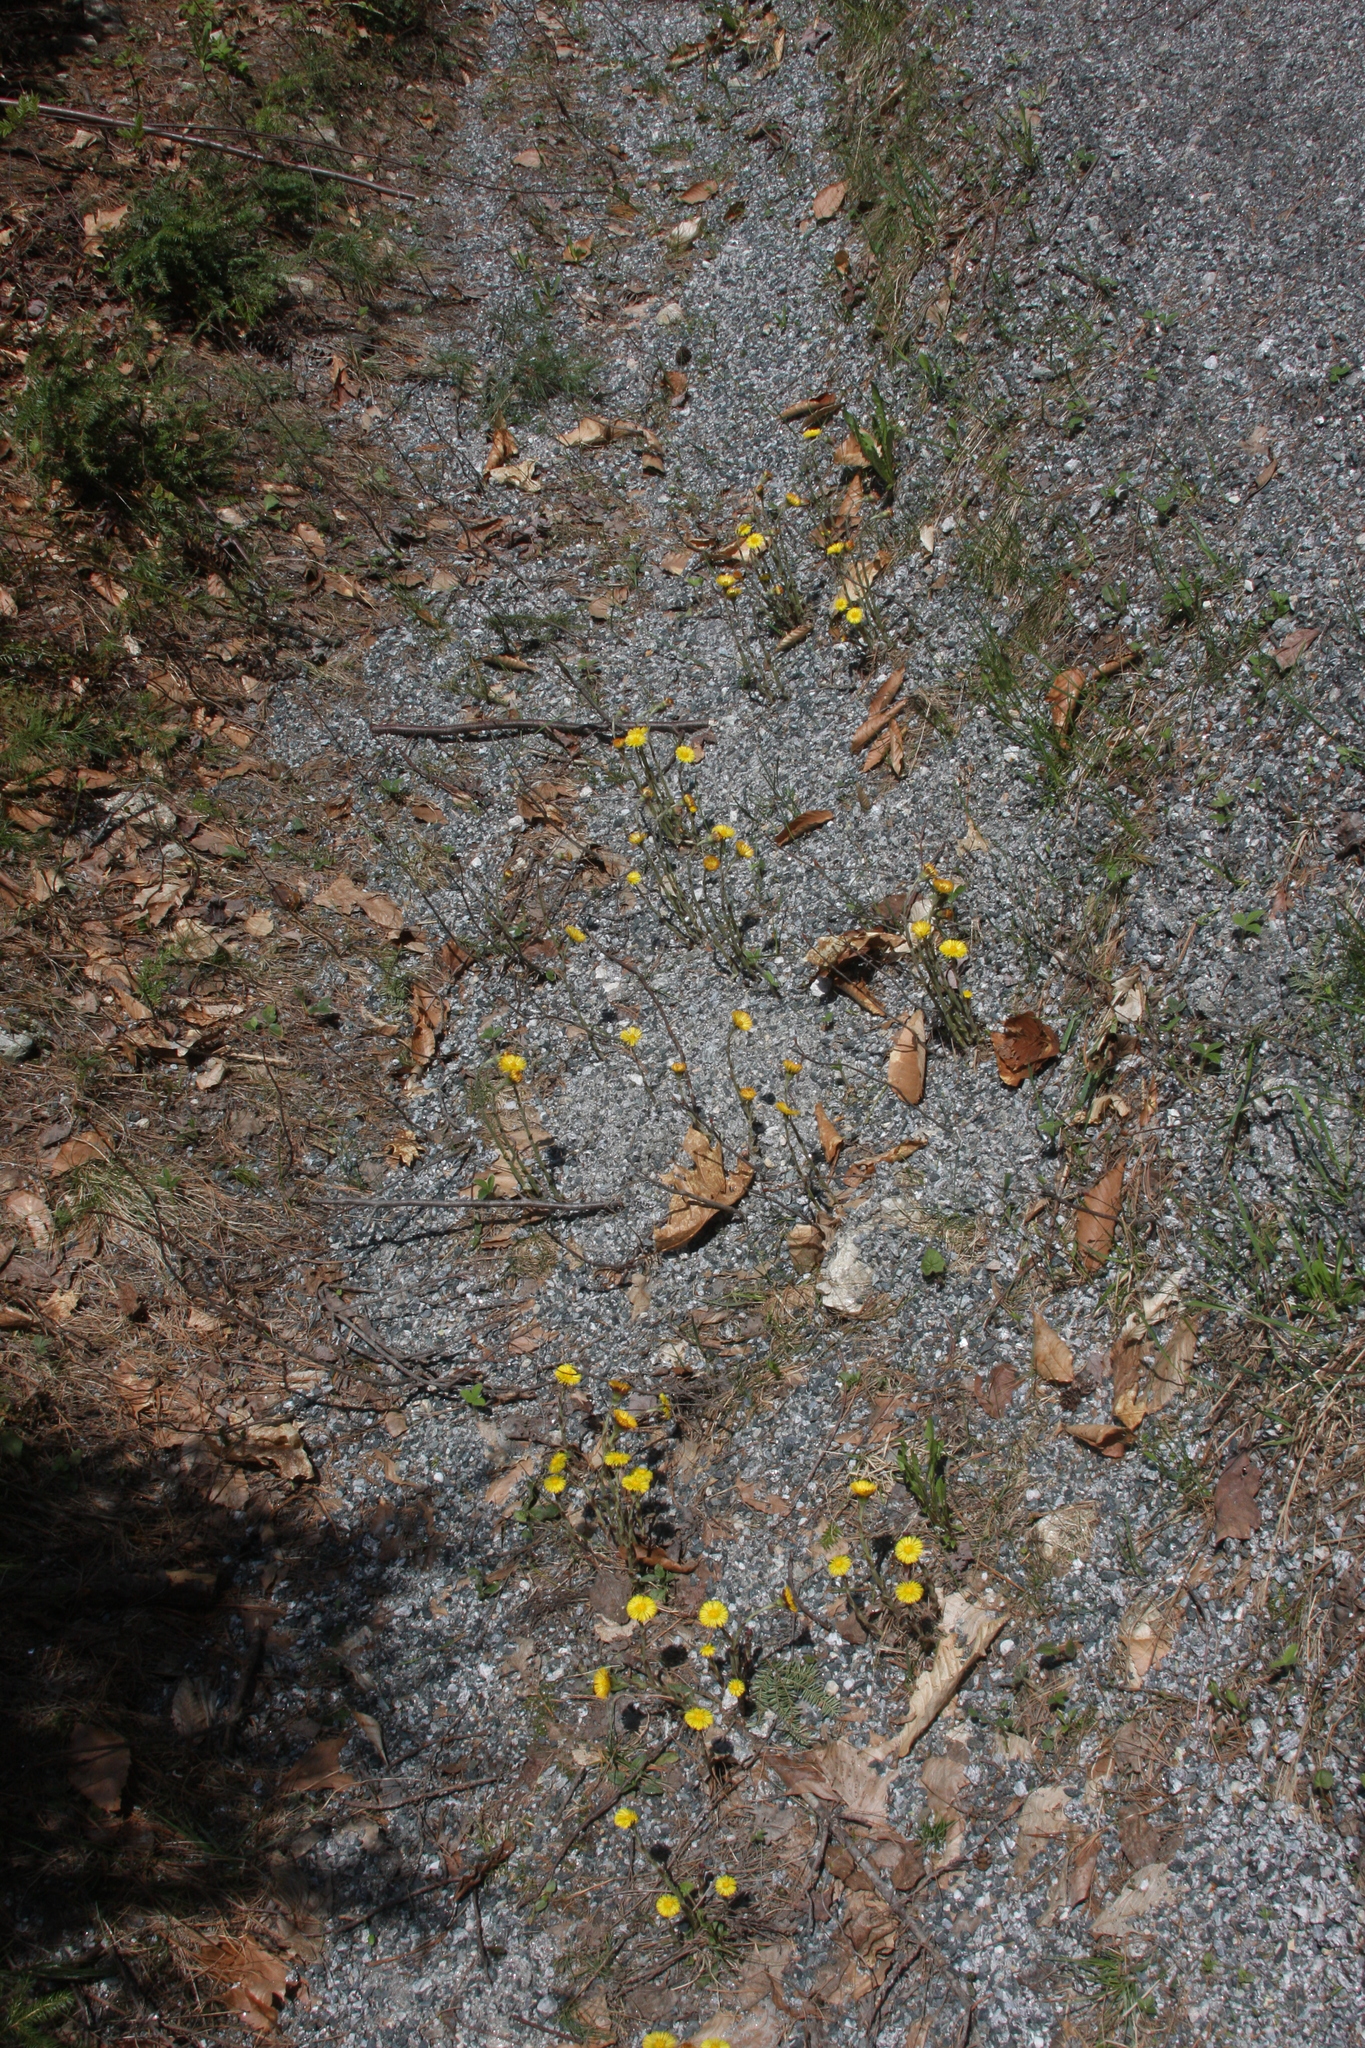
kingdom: Plantae
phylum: Tracheophyta
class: Magnoliopsida
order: Asterales
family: Asteraceae
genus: Tussilago
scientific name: Tussilago farfara
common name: Coltsfoot
